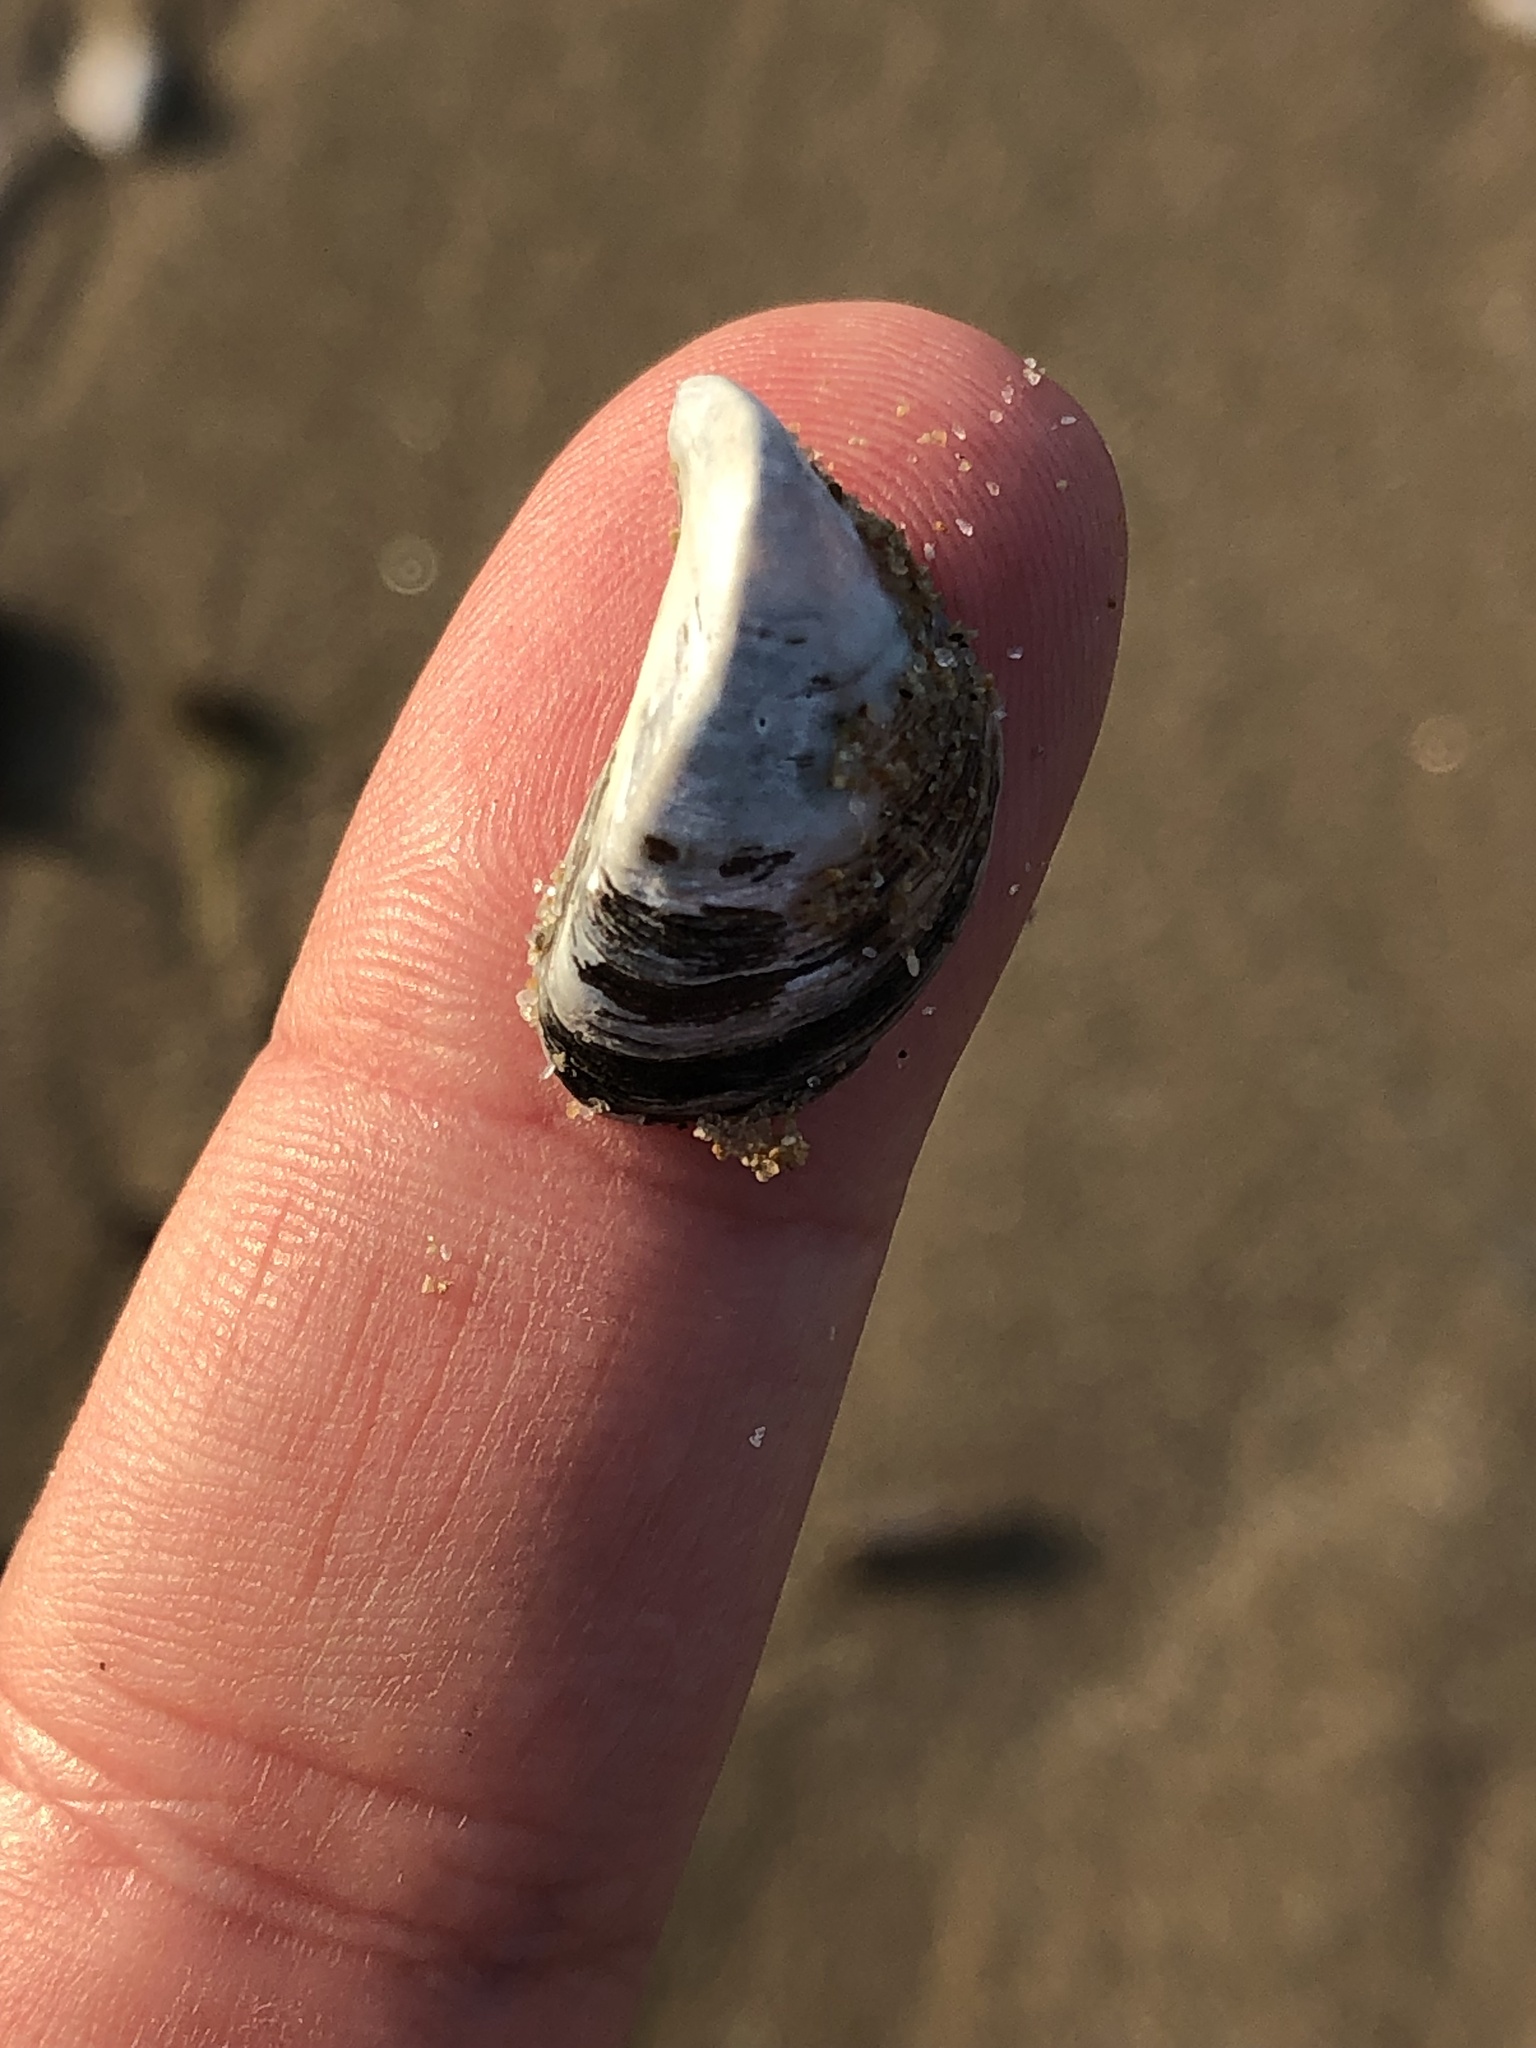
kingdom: Animalia
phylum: Mollusca
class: Bivalvia
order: Myida
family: Dreissenidae
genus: Dreissena
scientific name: Dreissena polymorpha
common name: Zebra mussel
